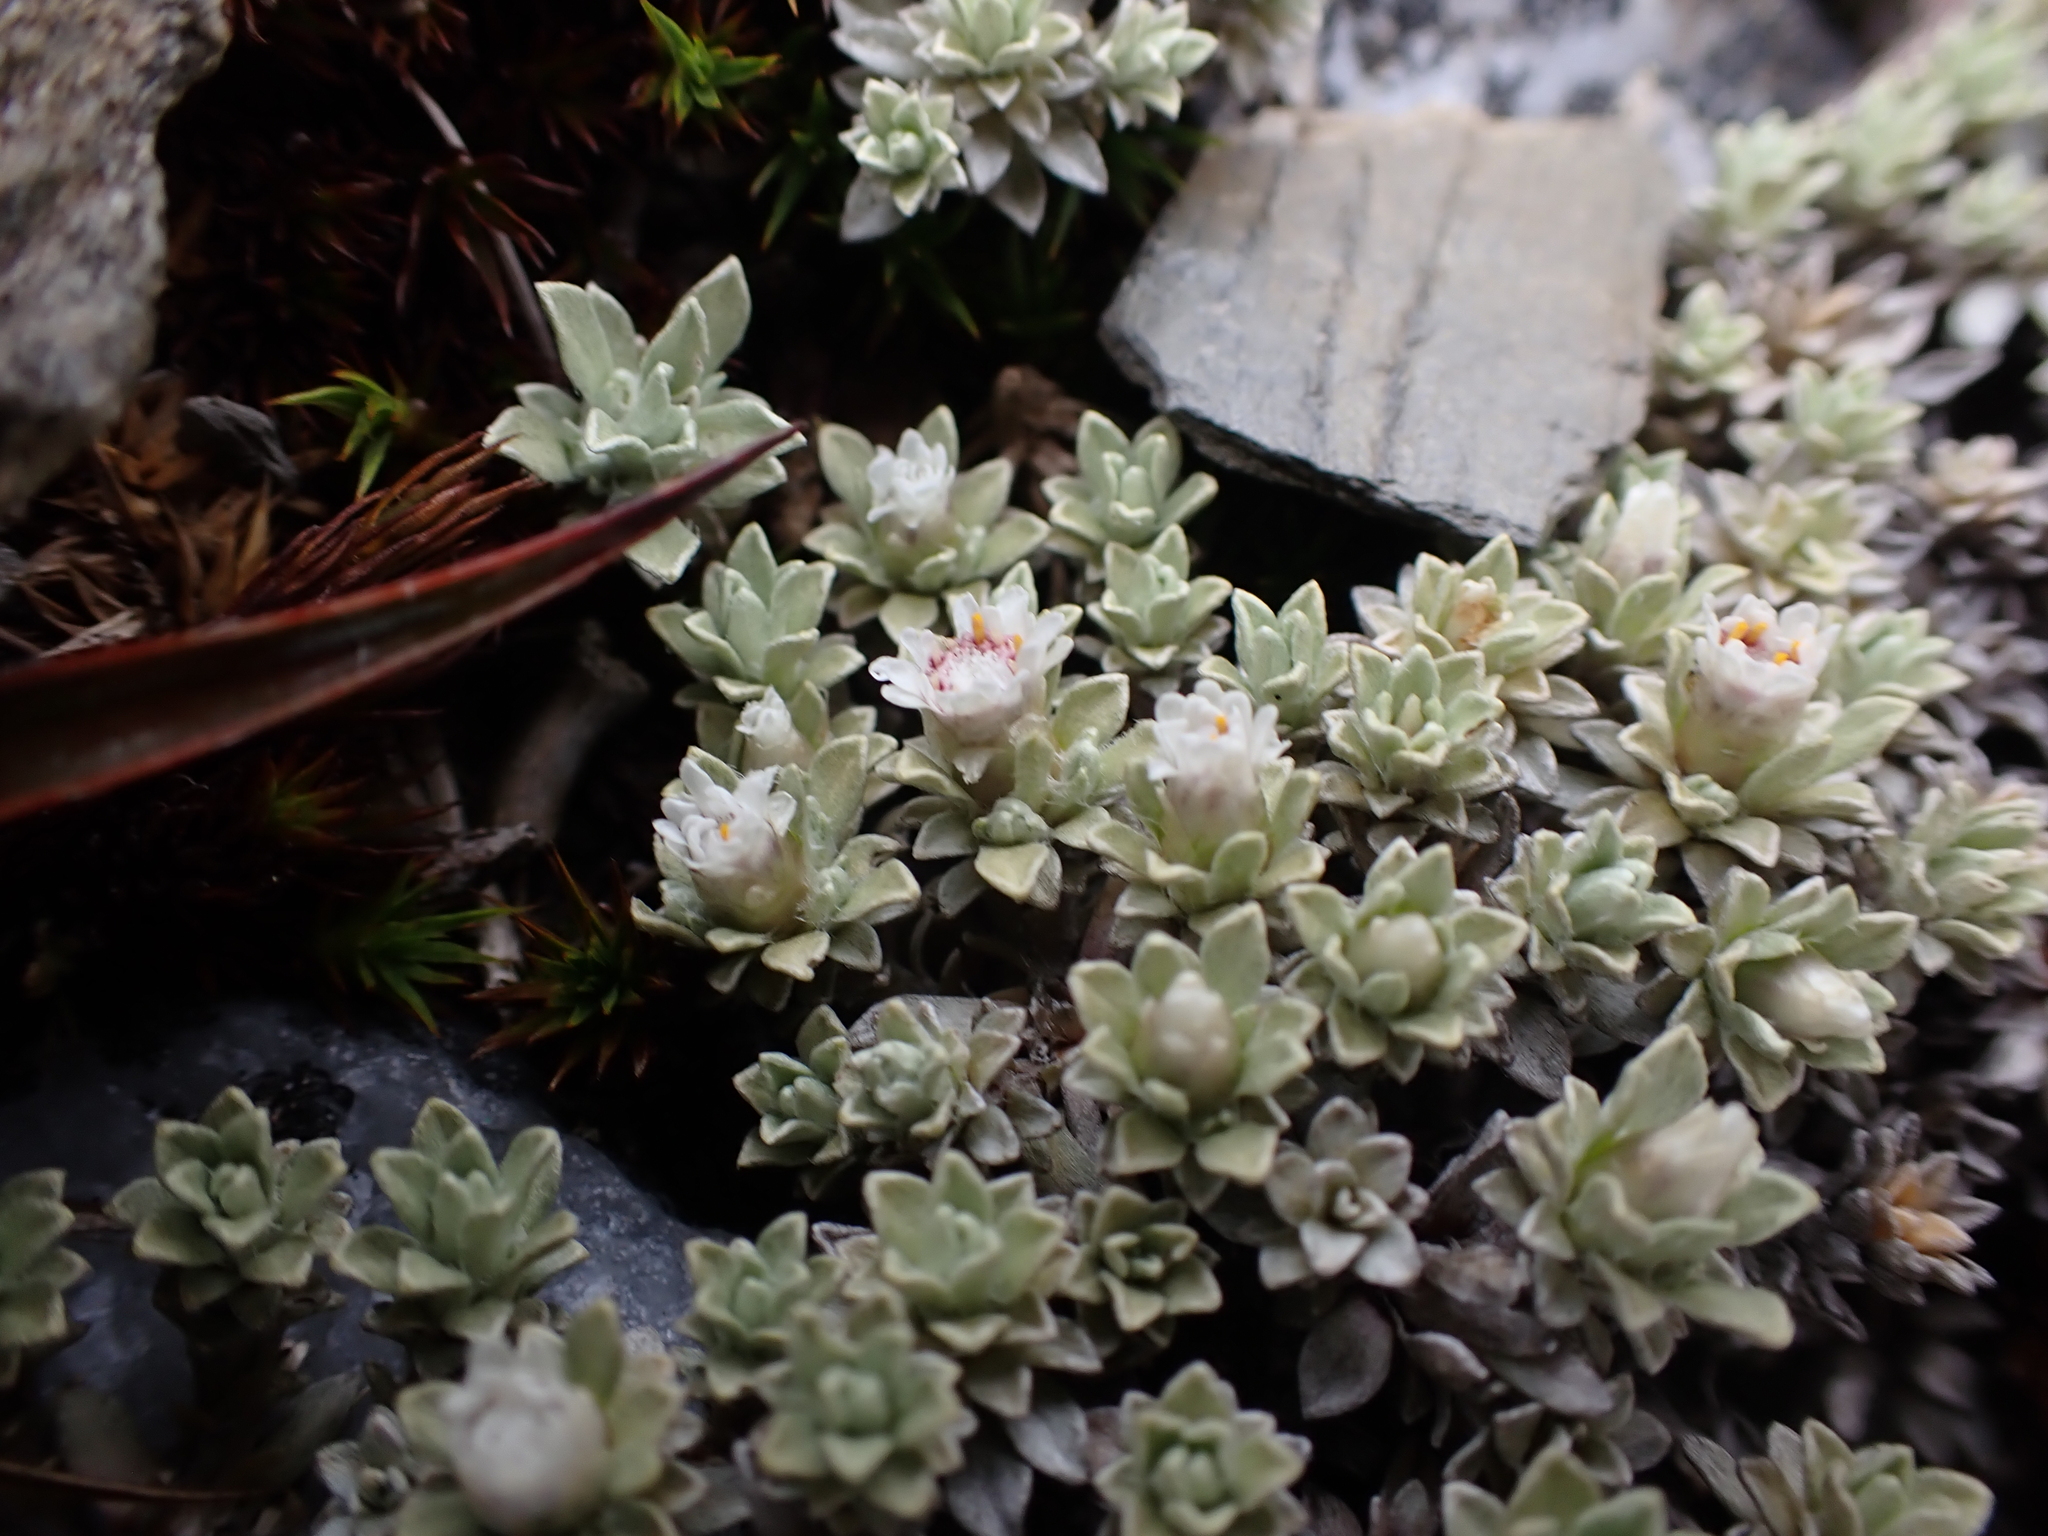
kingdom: Plantae
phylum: Tracheophyta
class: Magnoliopsida
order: Asterales
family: Asteraceae
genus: Ewartia
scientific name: Ewartia nubigena
